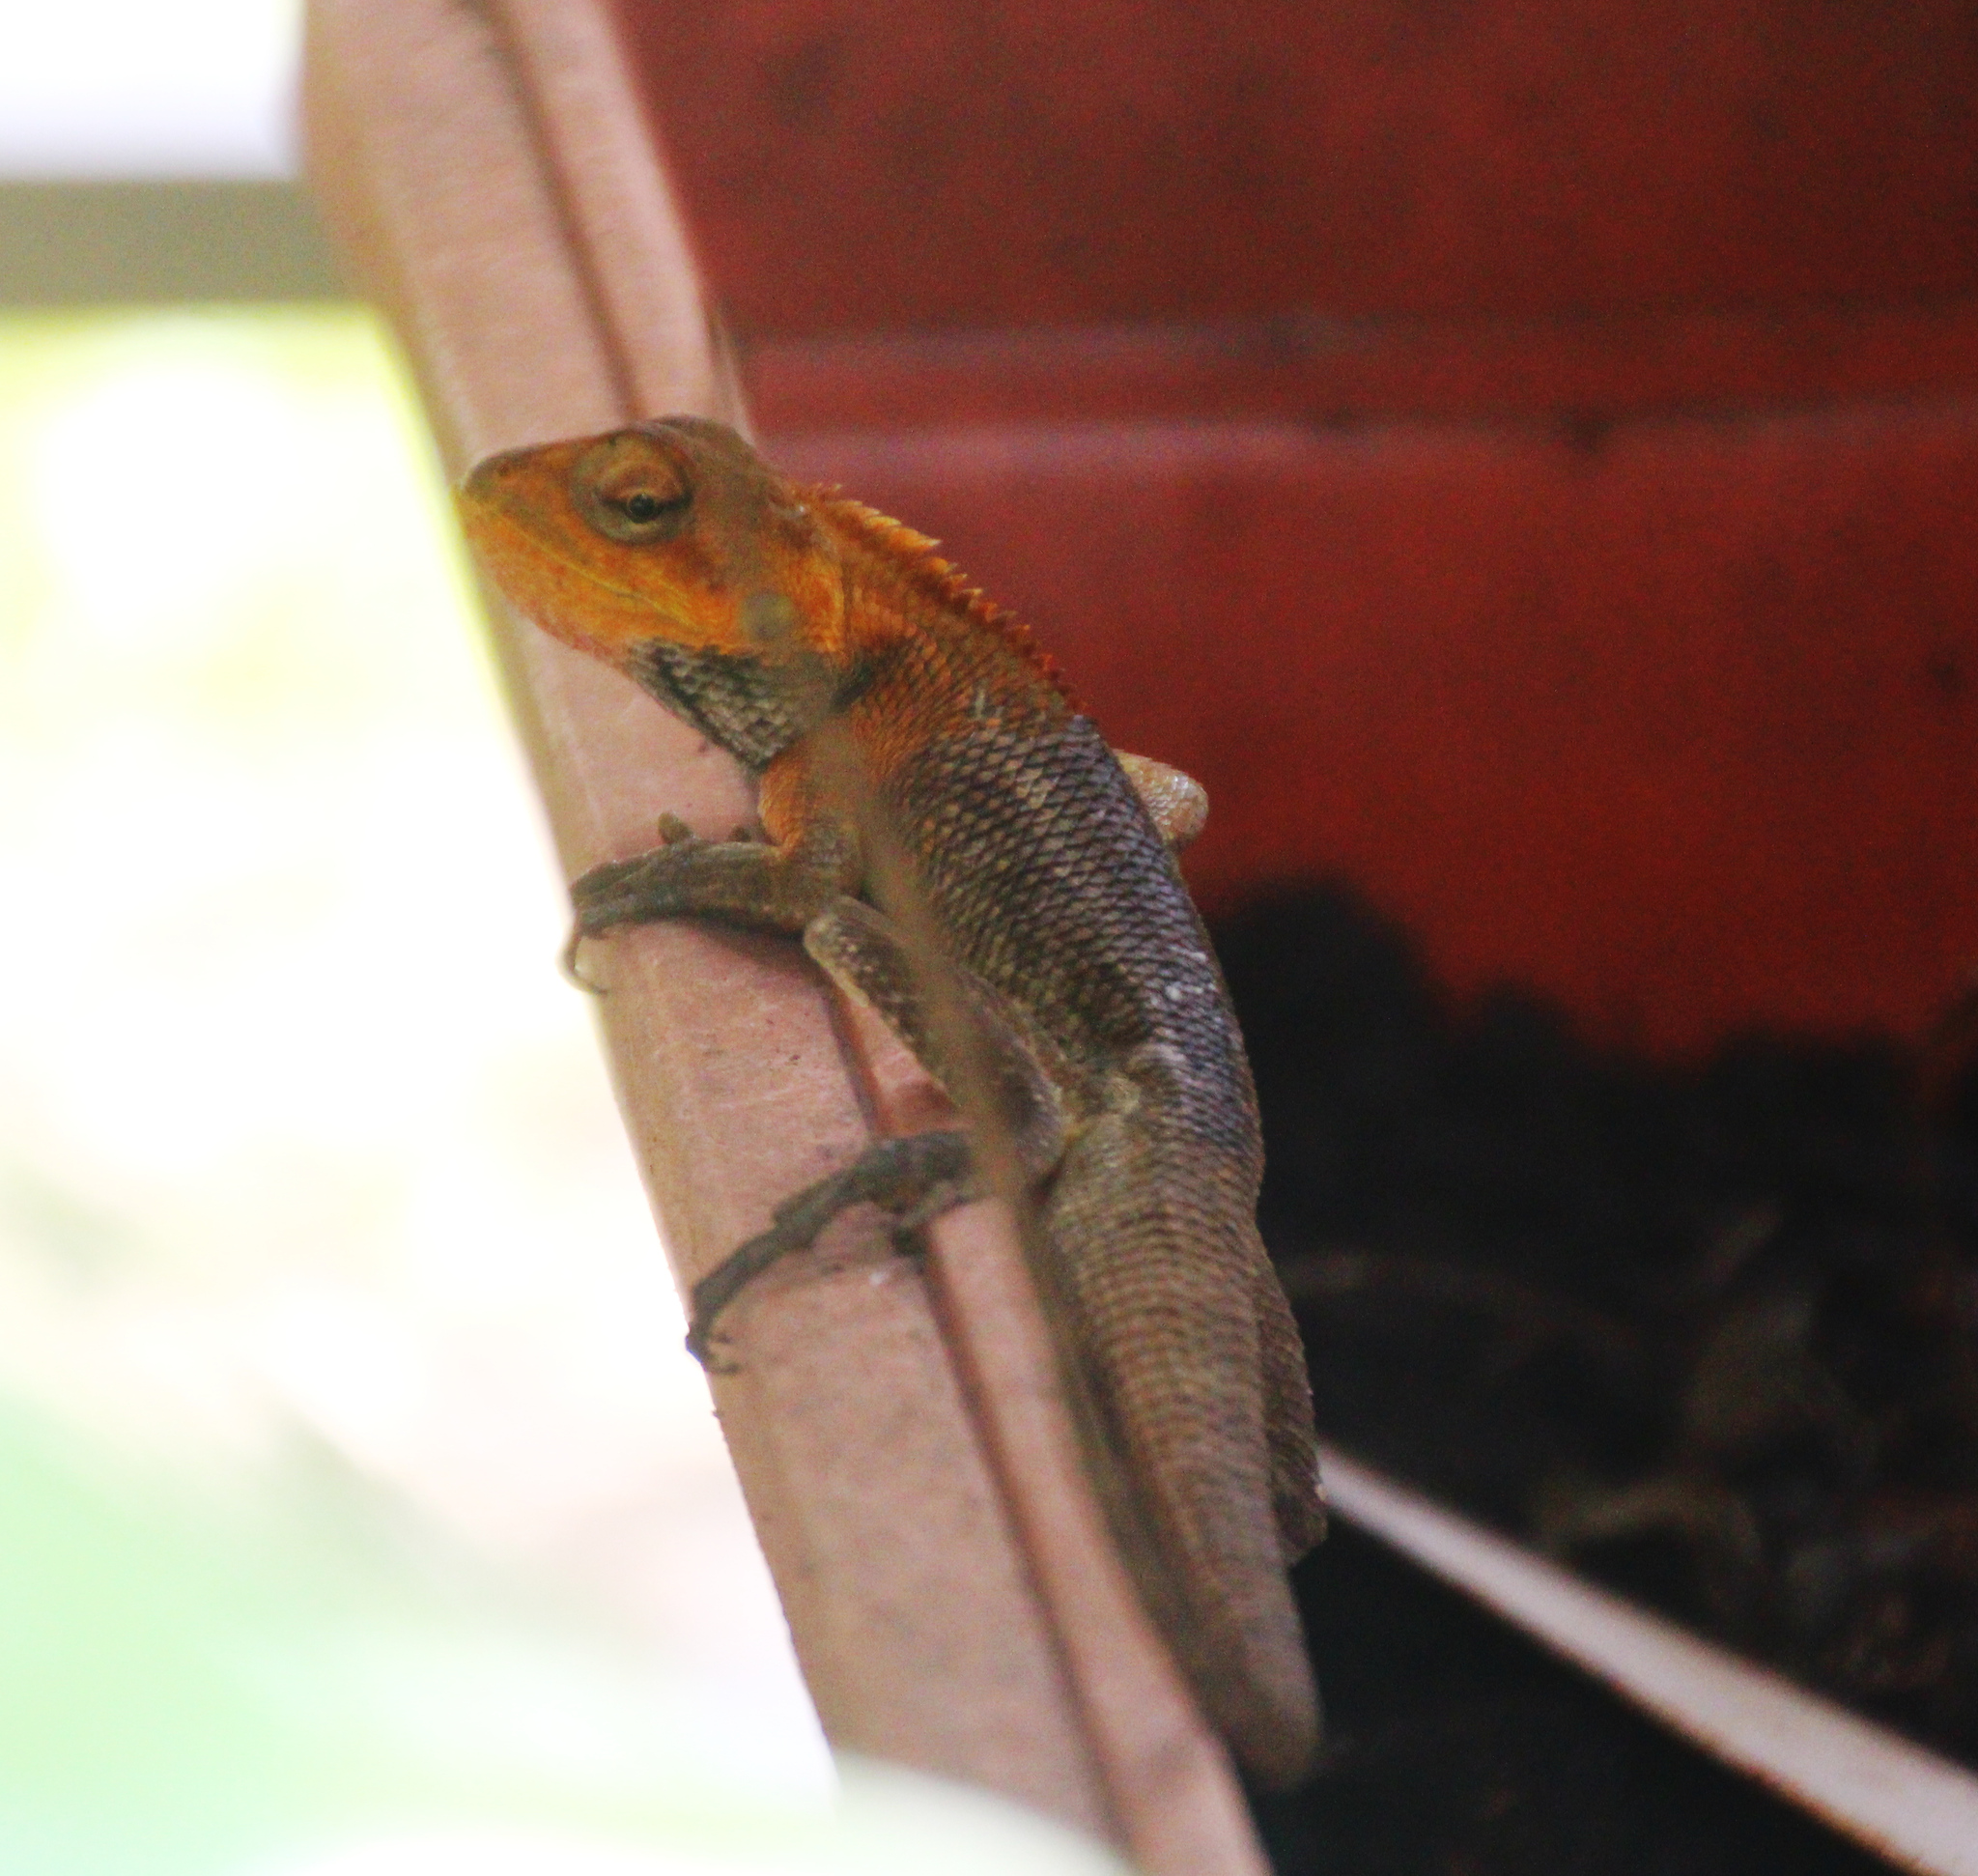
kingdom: Animalia
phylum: Chordata
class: Squamata
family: Agamidae
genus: Calotes
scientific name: Calotes versicolor
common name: Oriental garden lizard
